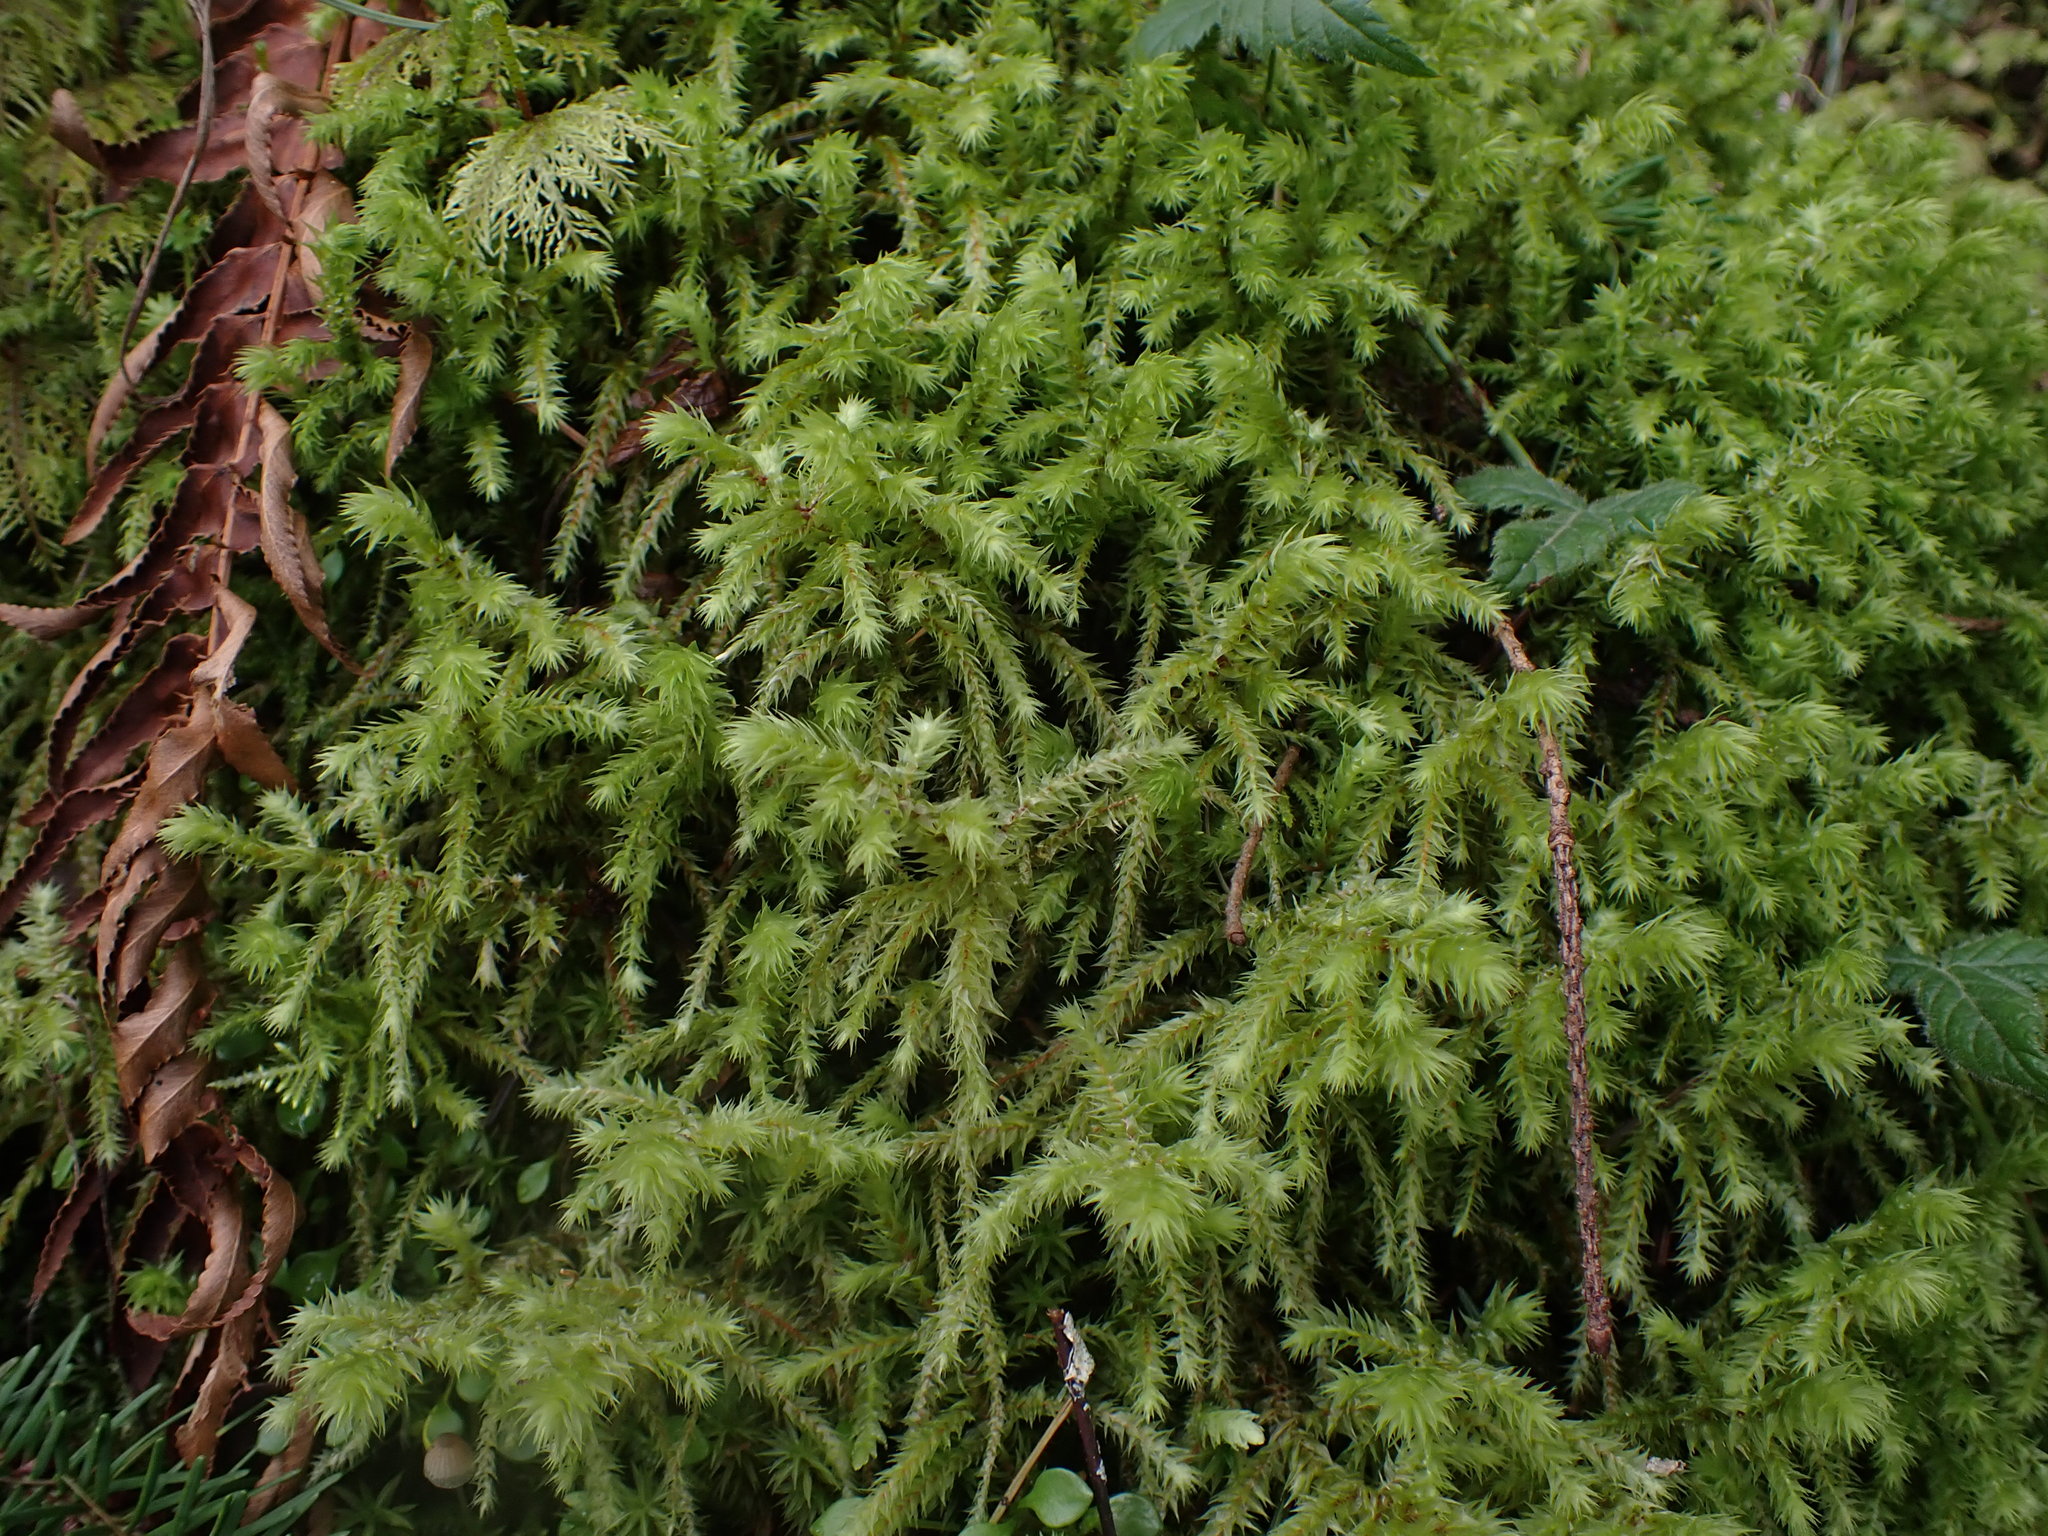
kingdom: Plantae
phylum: Bryophyta
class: Bryopsida
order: Hypnales
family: Hylocomiaceae
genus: Hylocomiadelphus
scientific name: Hylocomiadelphus triquetrus
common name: Rough goose neck moss
